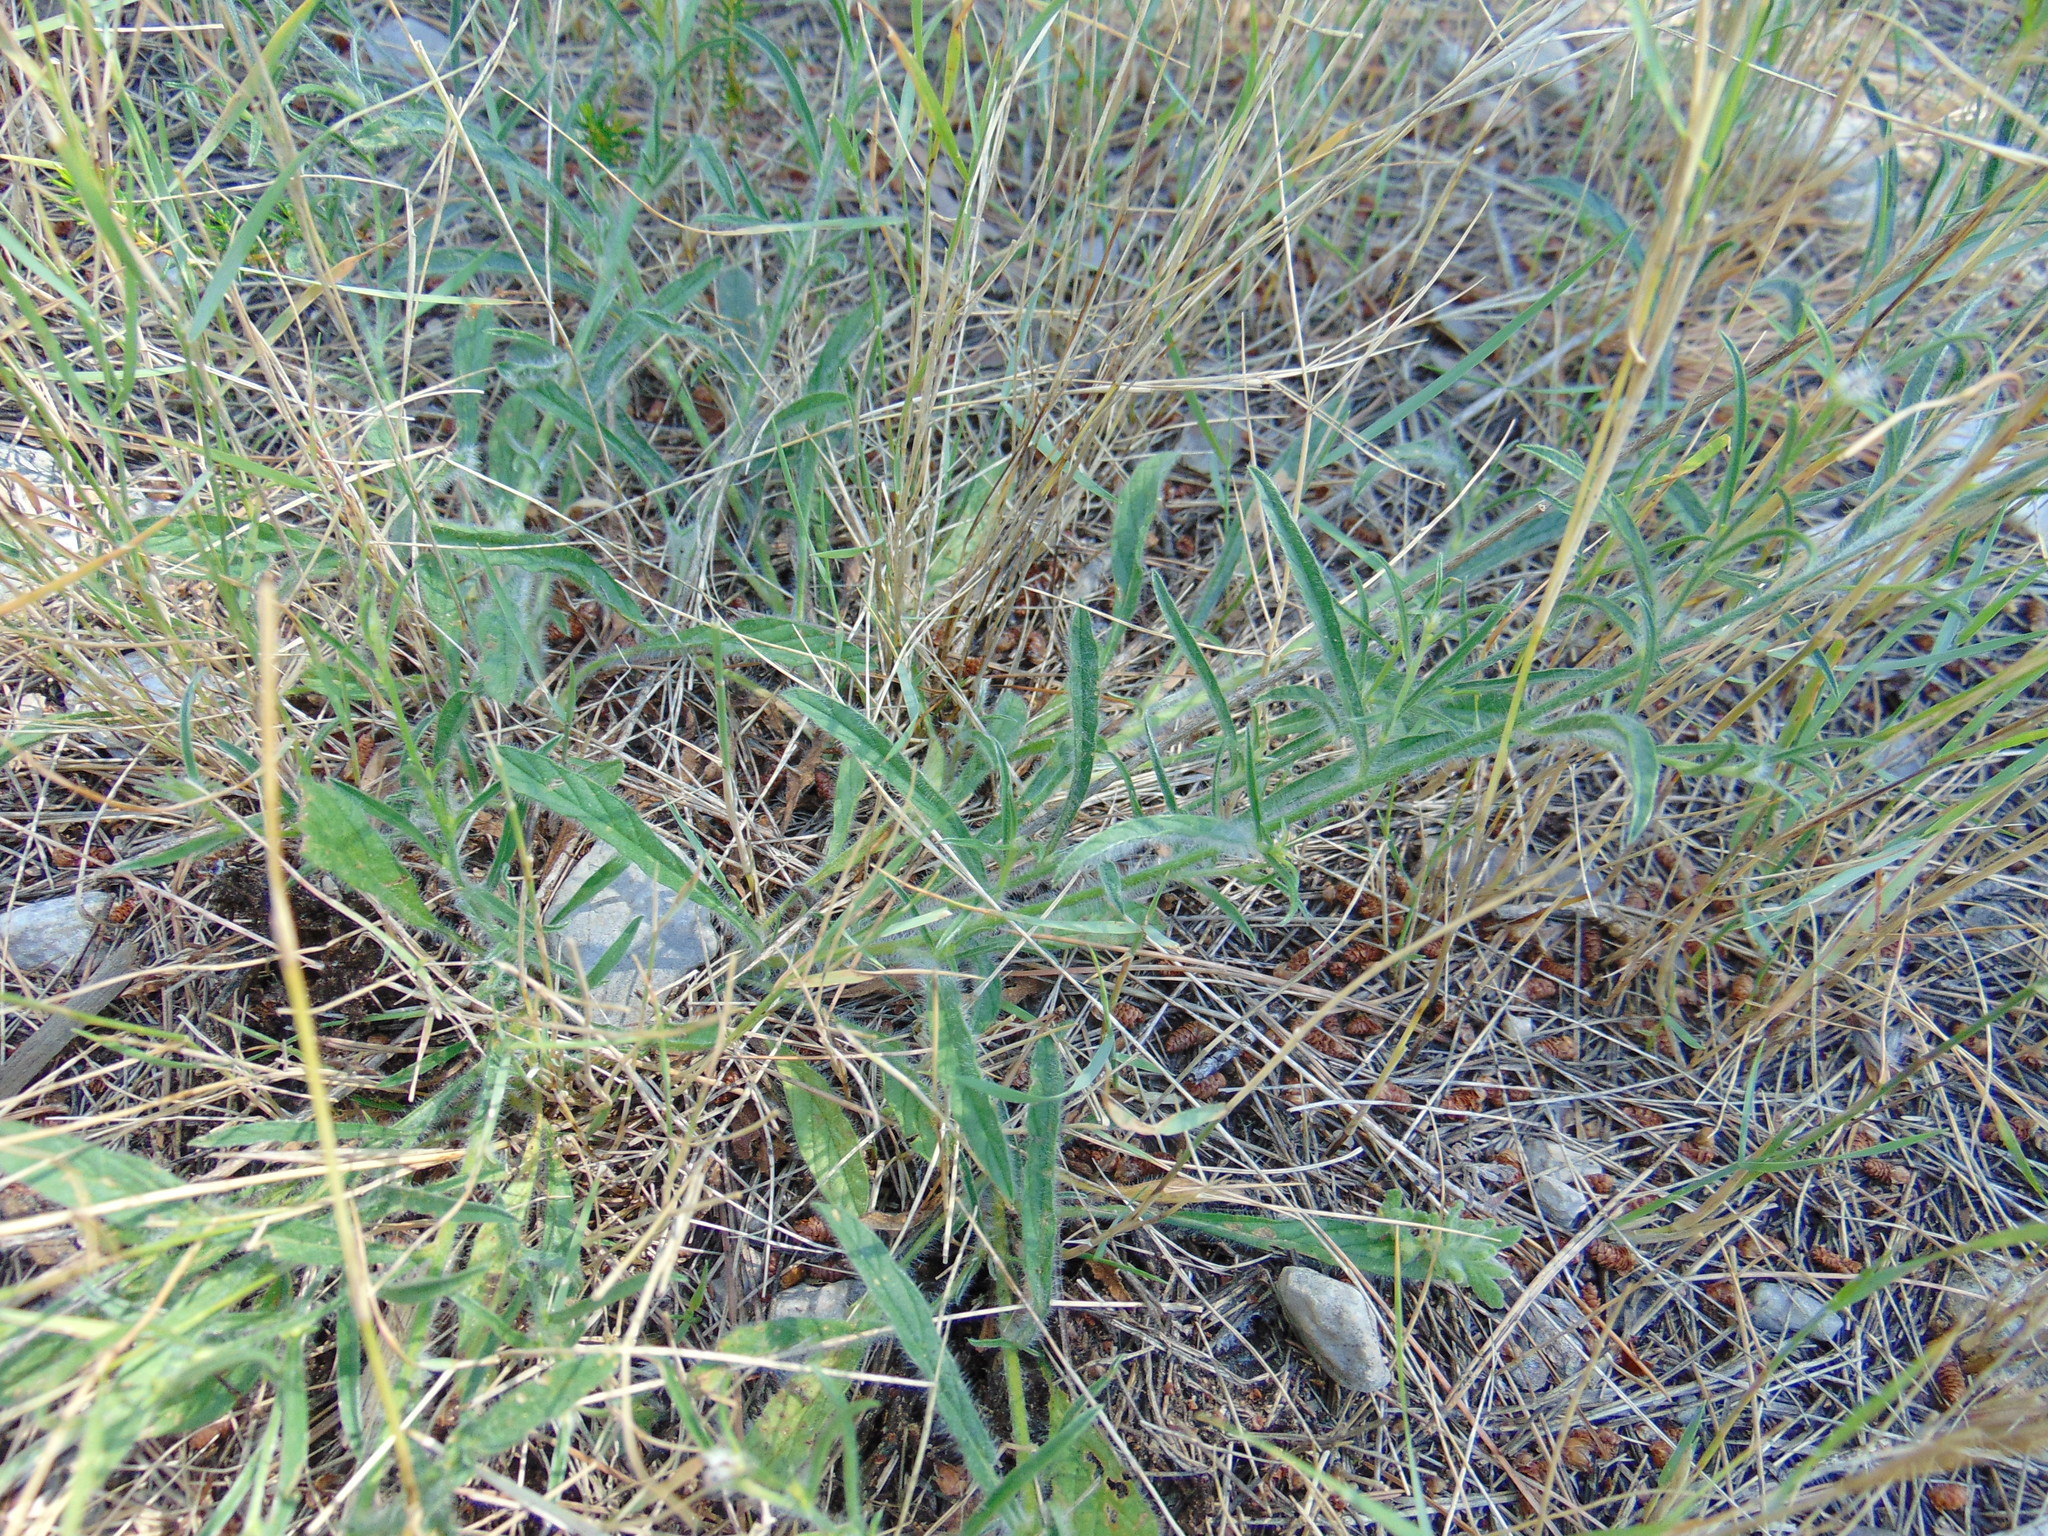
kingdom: Plantae
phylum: Tracheophyta
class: Magnoliopsida
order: Solanales
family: Convolvulaceae
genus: Convolvulus
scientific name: Convolvulus cantabrica
